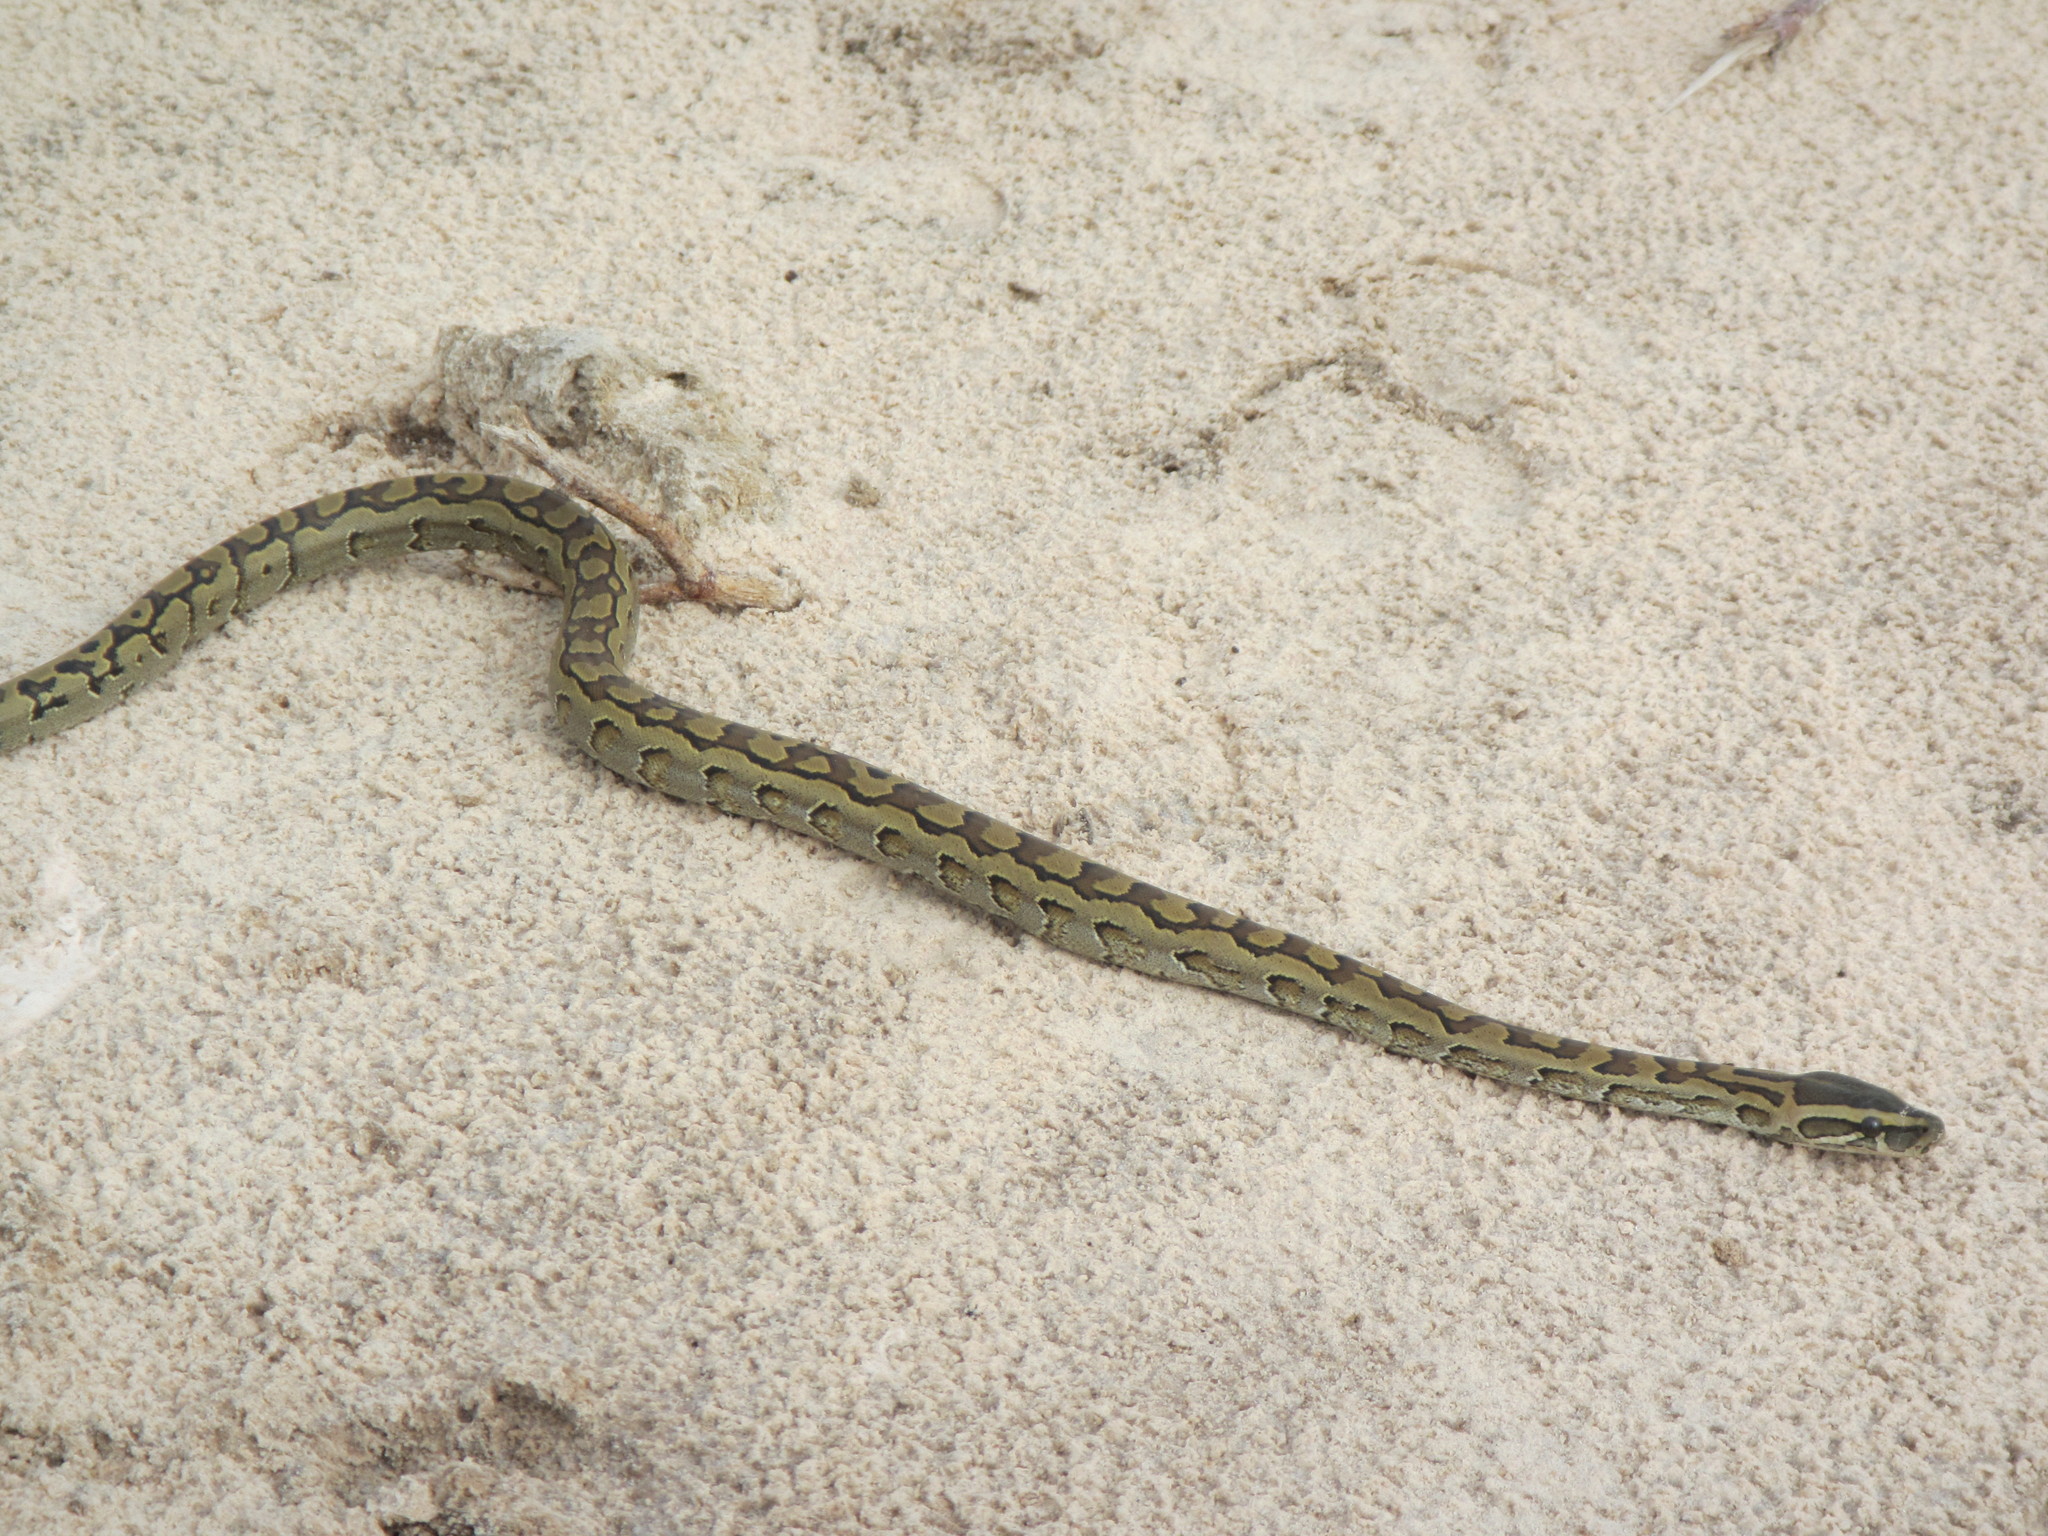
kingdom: Animalia
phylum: Chordata
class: Squamata
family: Pythonidae
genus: Python
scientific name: Python sebae
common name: African rock python
